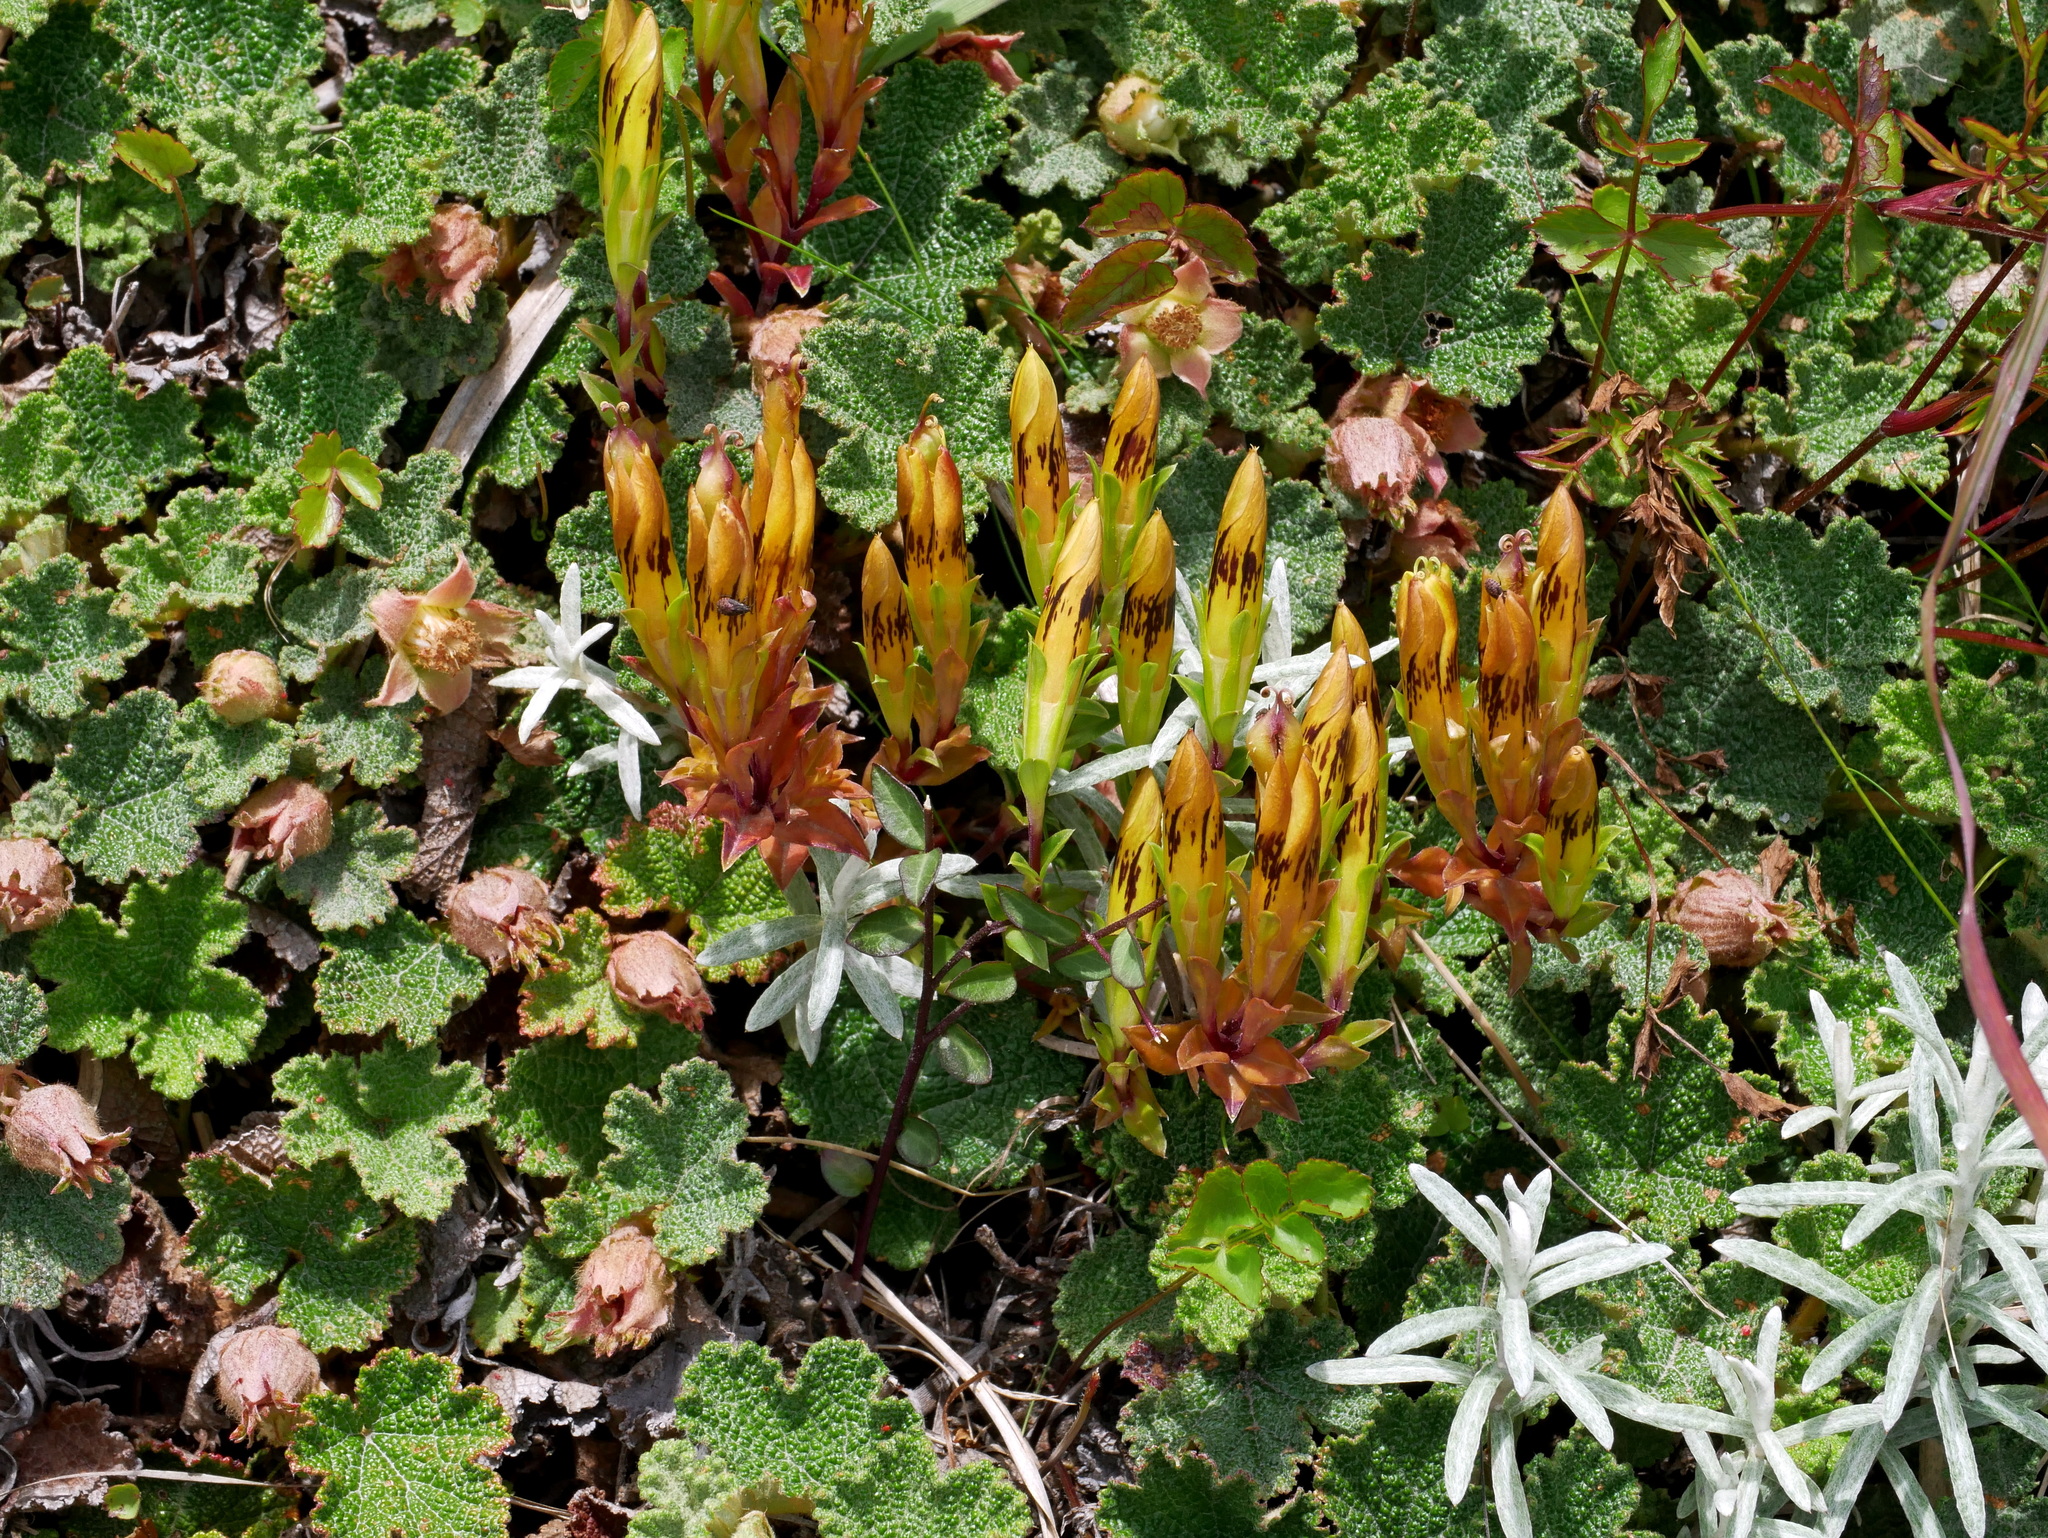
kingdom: Plantae
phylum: Tracheophyta
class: Magnoliopsida
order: Gentianales
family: Gentianaceae
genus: Gentiana
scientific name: Gentiana scabrida
